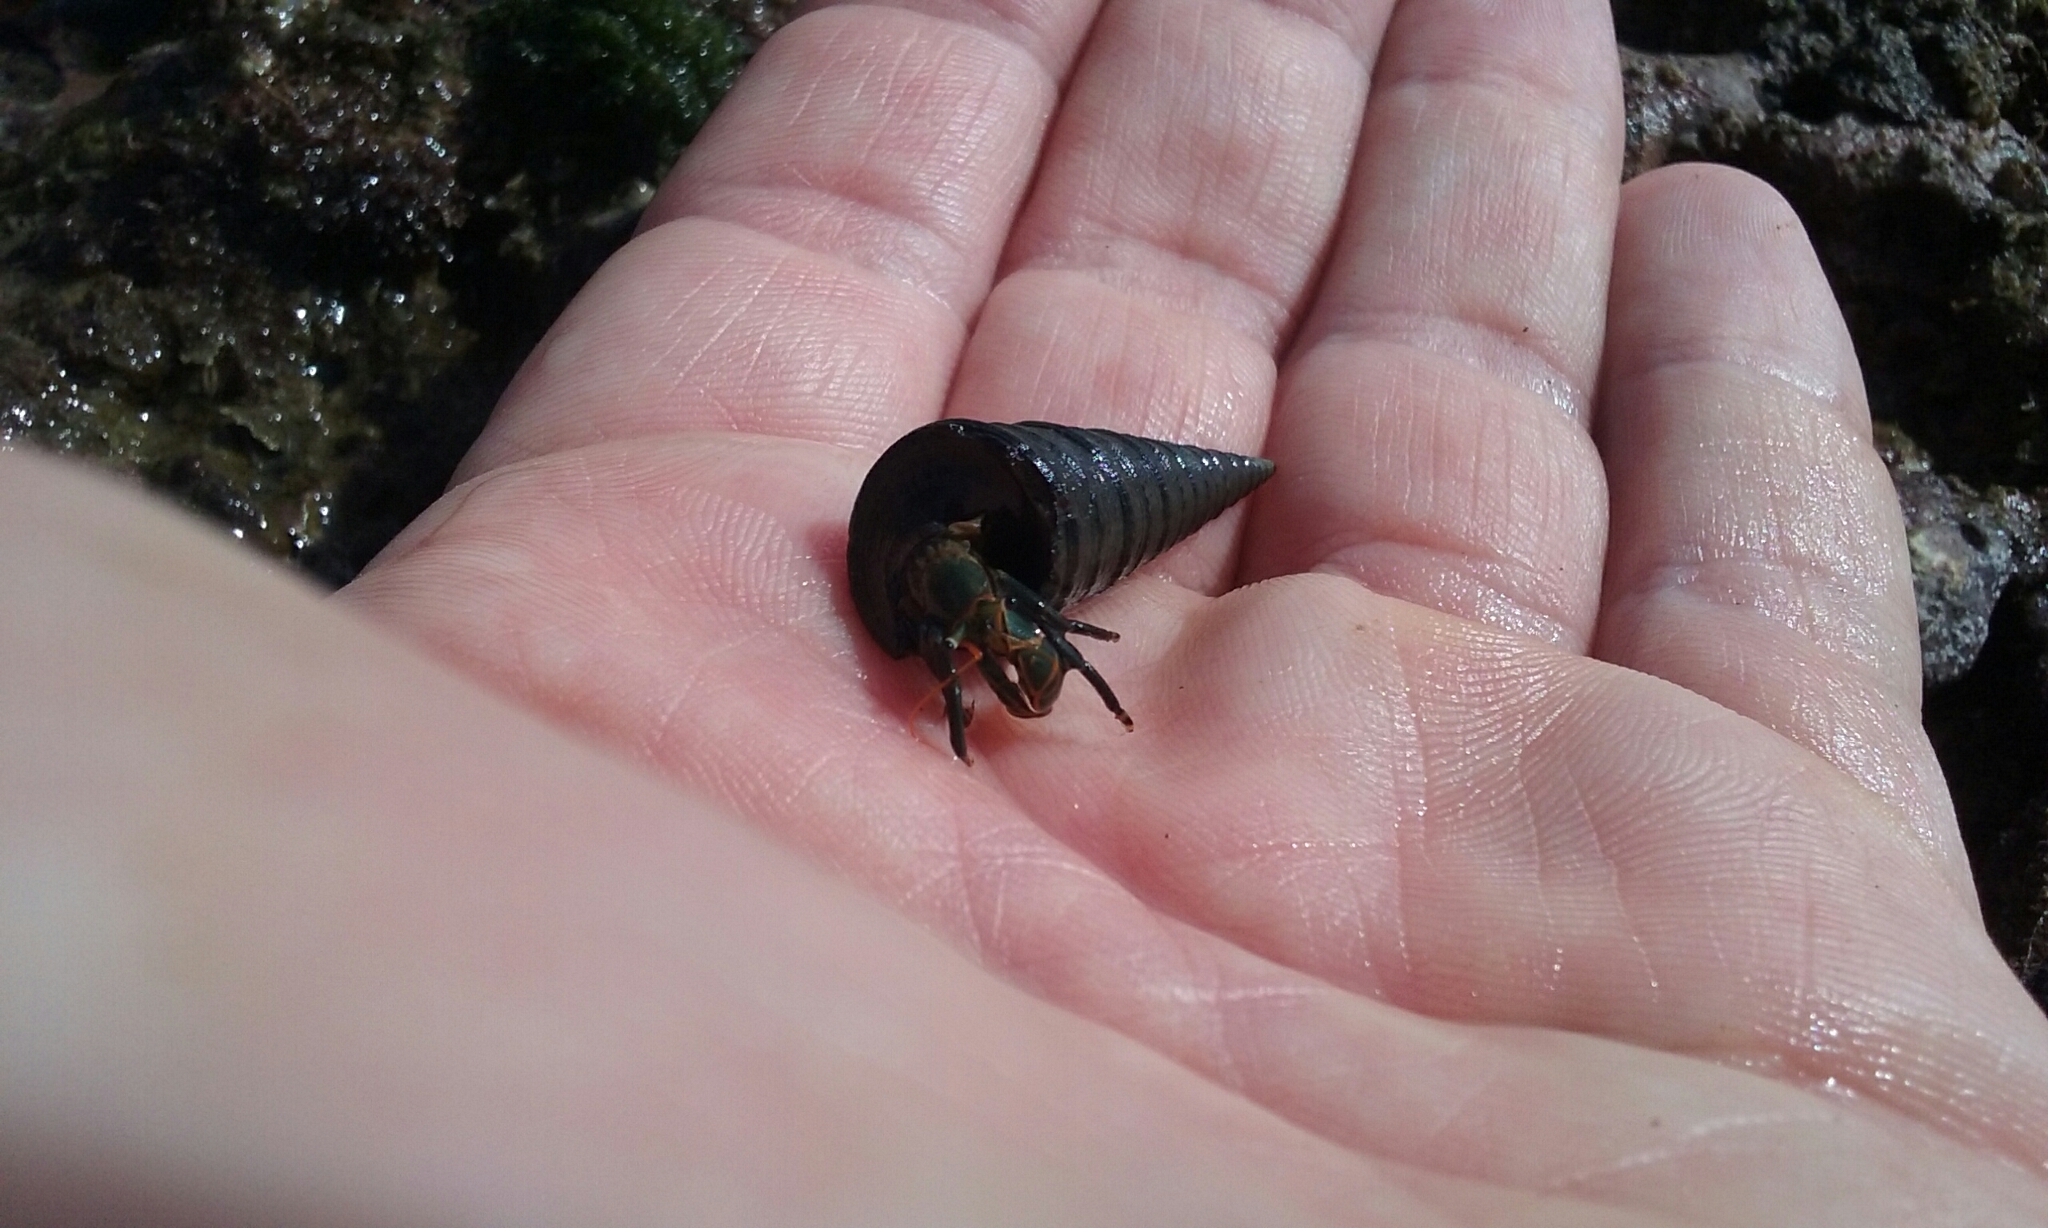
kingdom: Animalia
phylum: Arthropoda
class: Malacostraca
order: Decapoda
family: Diogenidae
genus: Calcinus
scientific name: Calcinus obscurus
